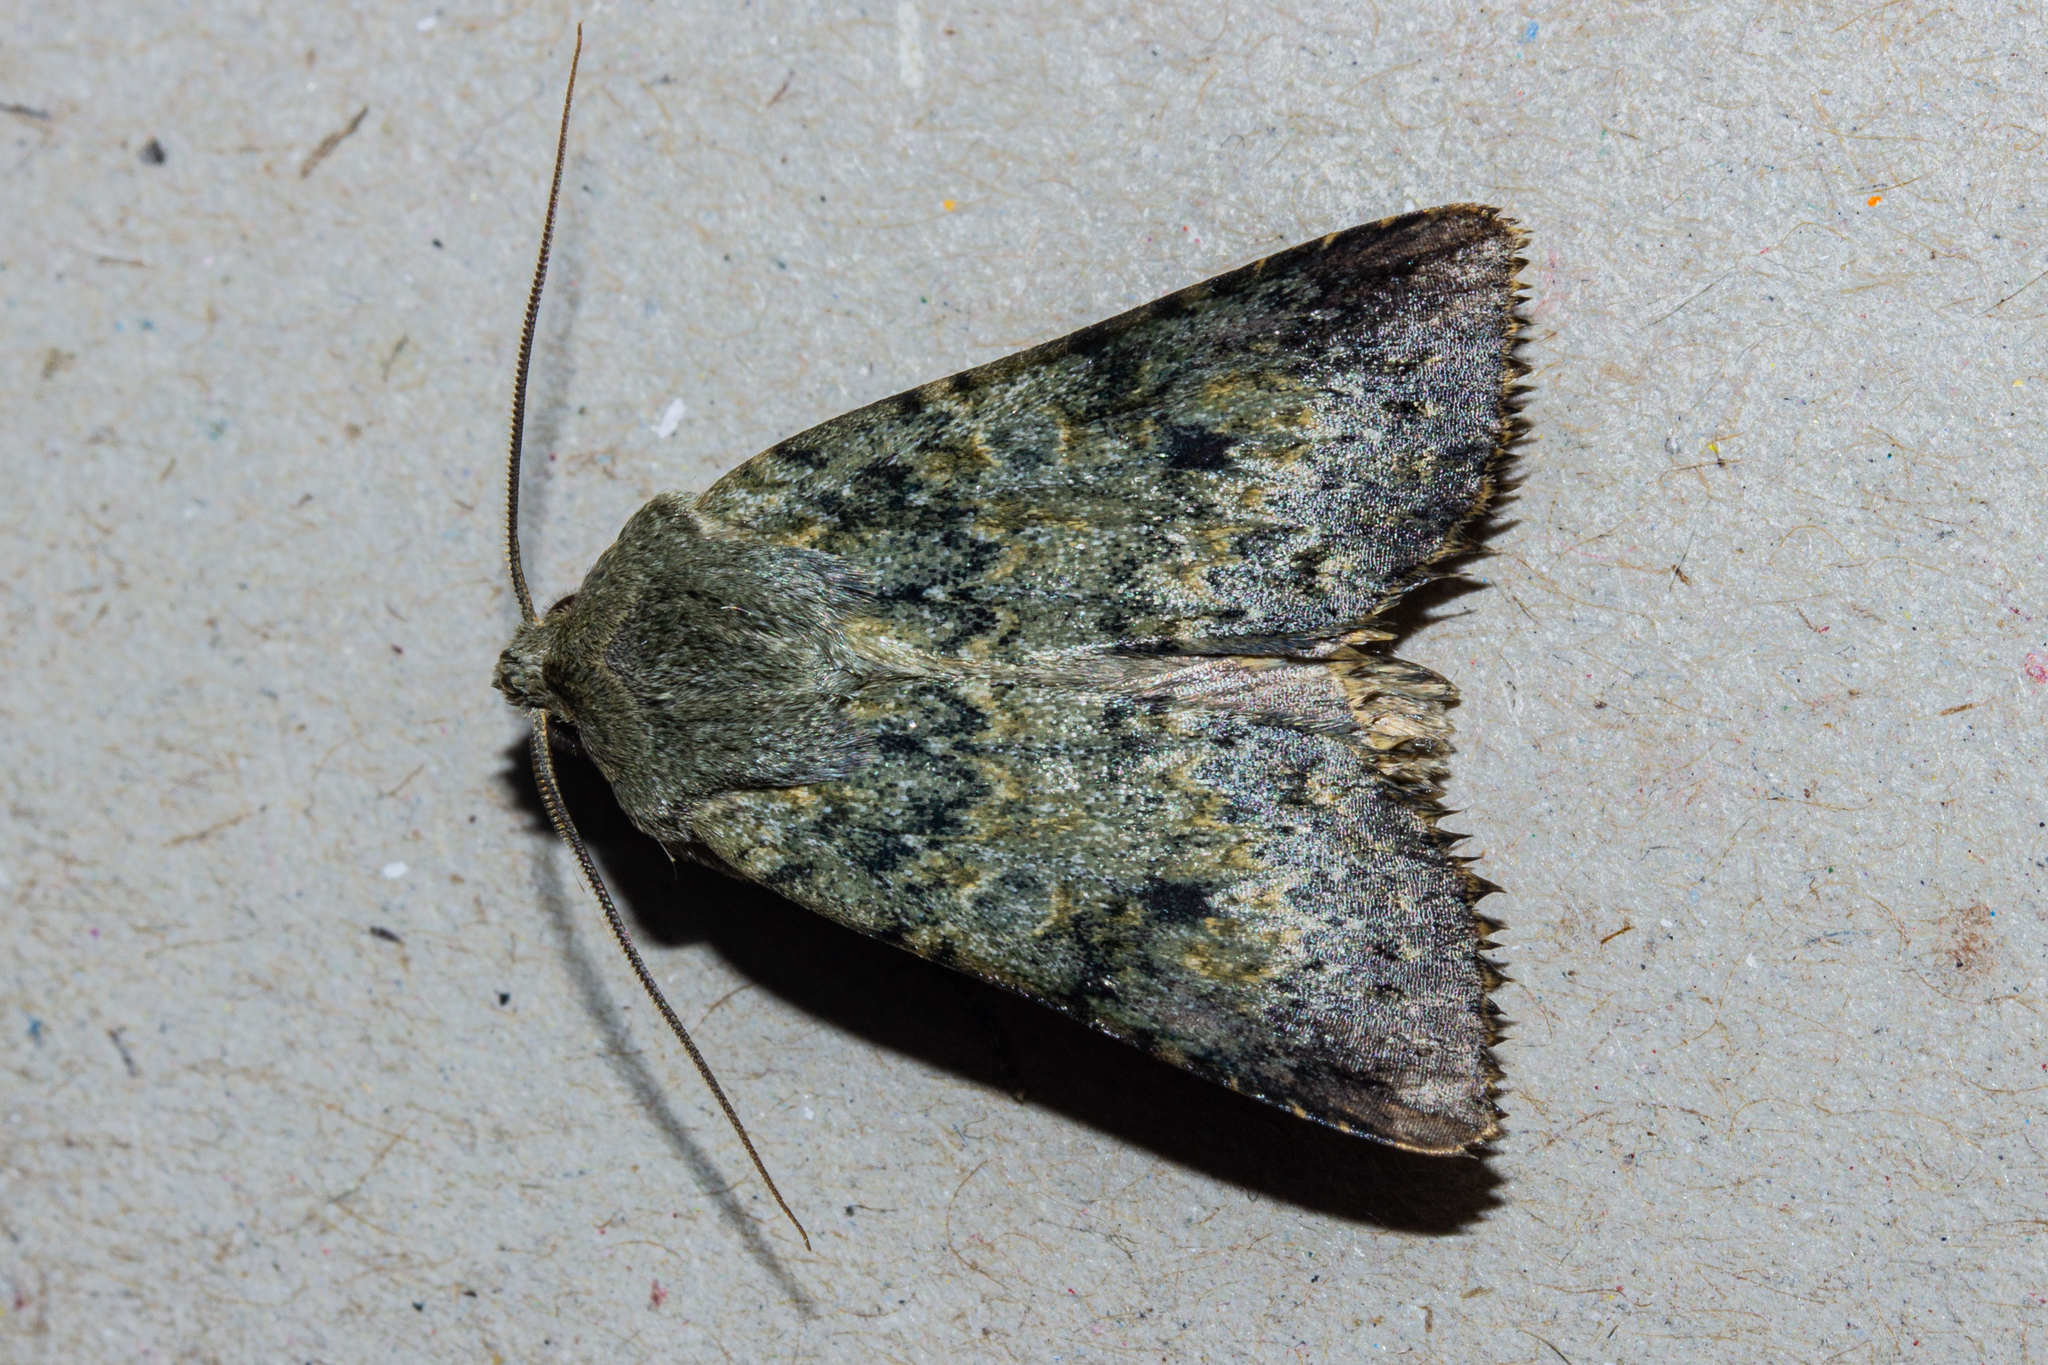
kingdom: Animalia
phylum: Arthropoda
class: Insecta
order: Lepidoptera
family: Noctuidae
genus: Ichneutica
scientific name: Ichneutica cuneata
